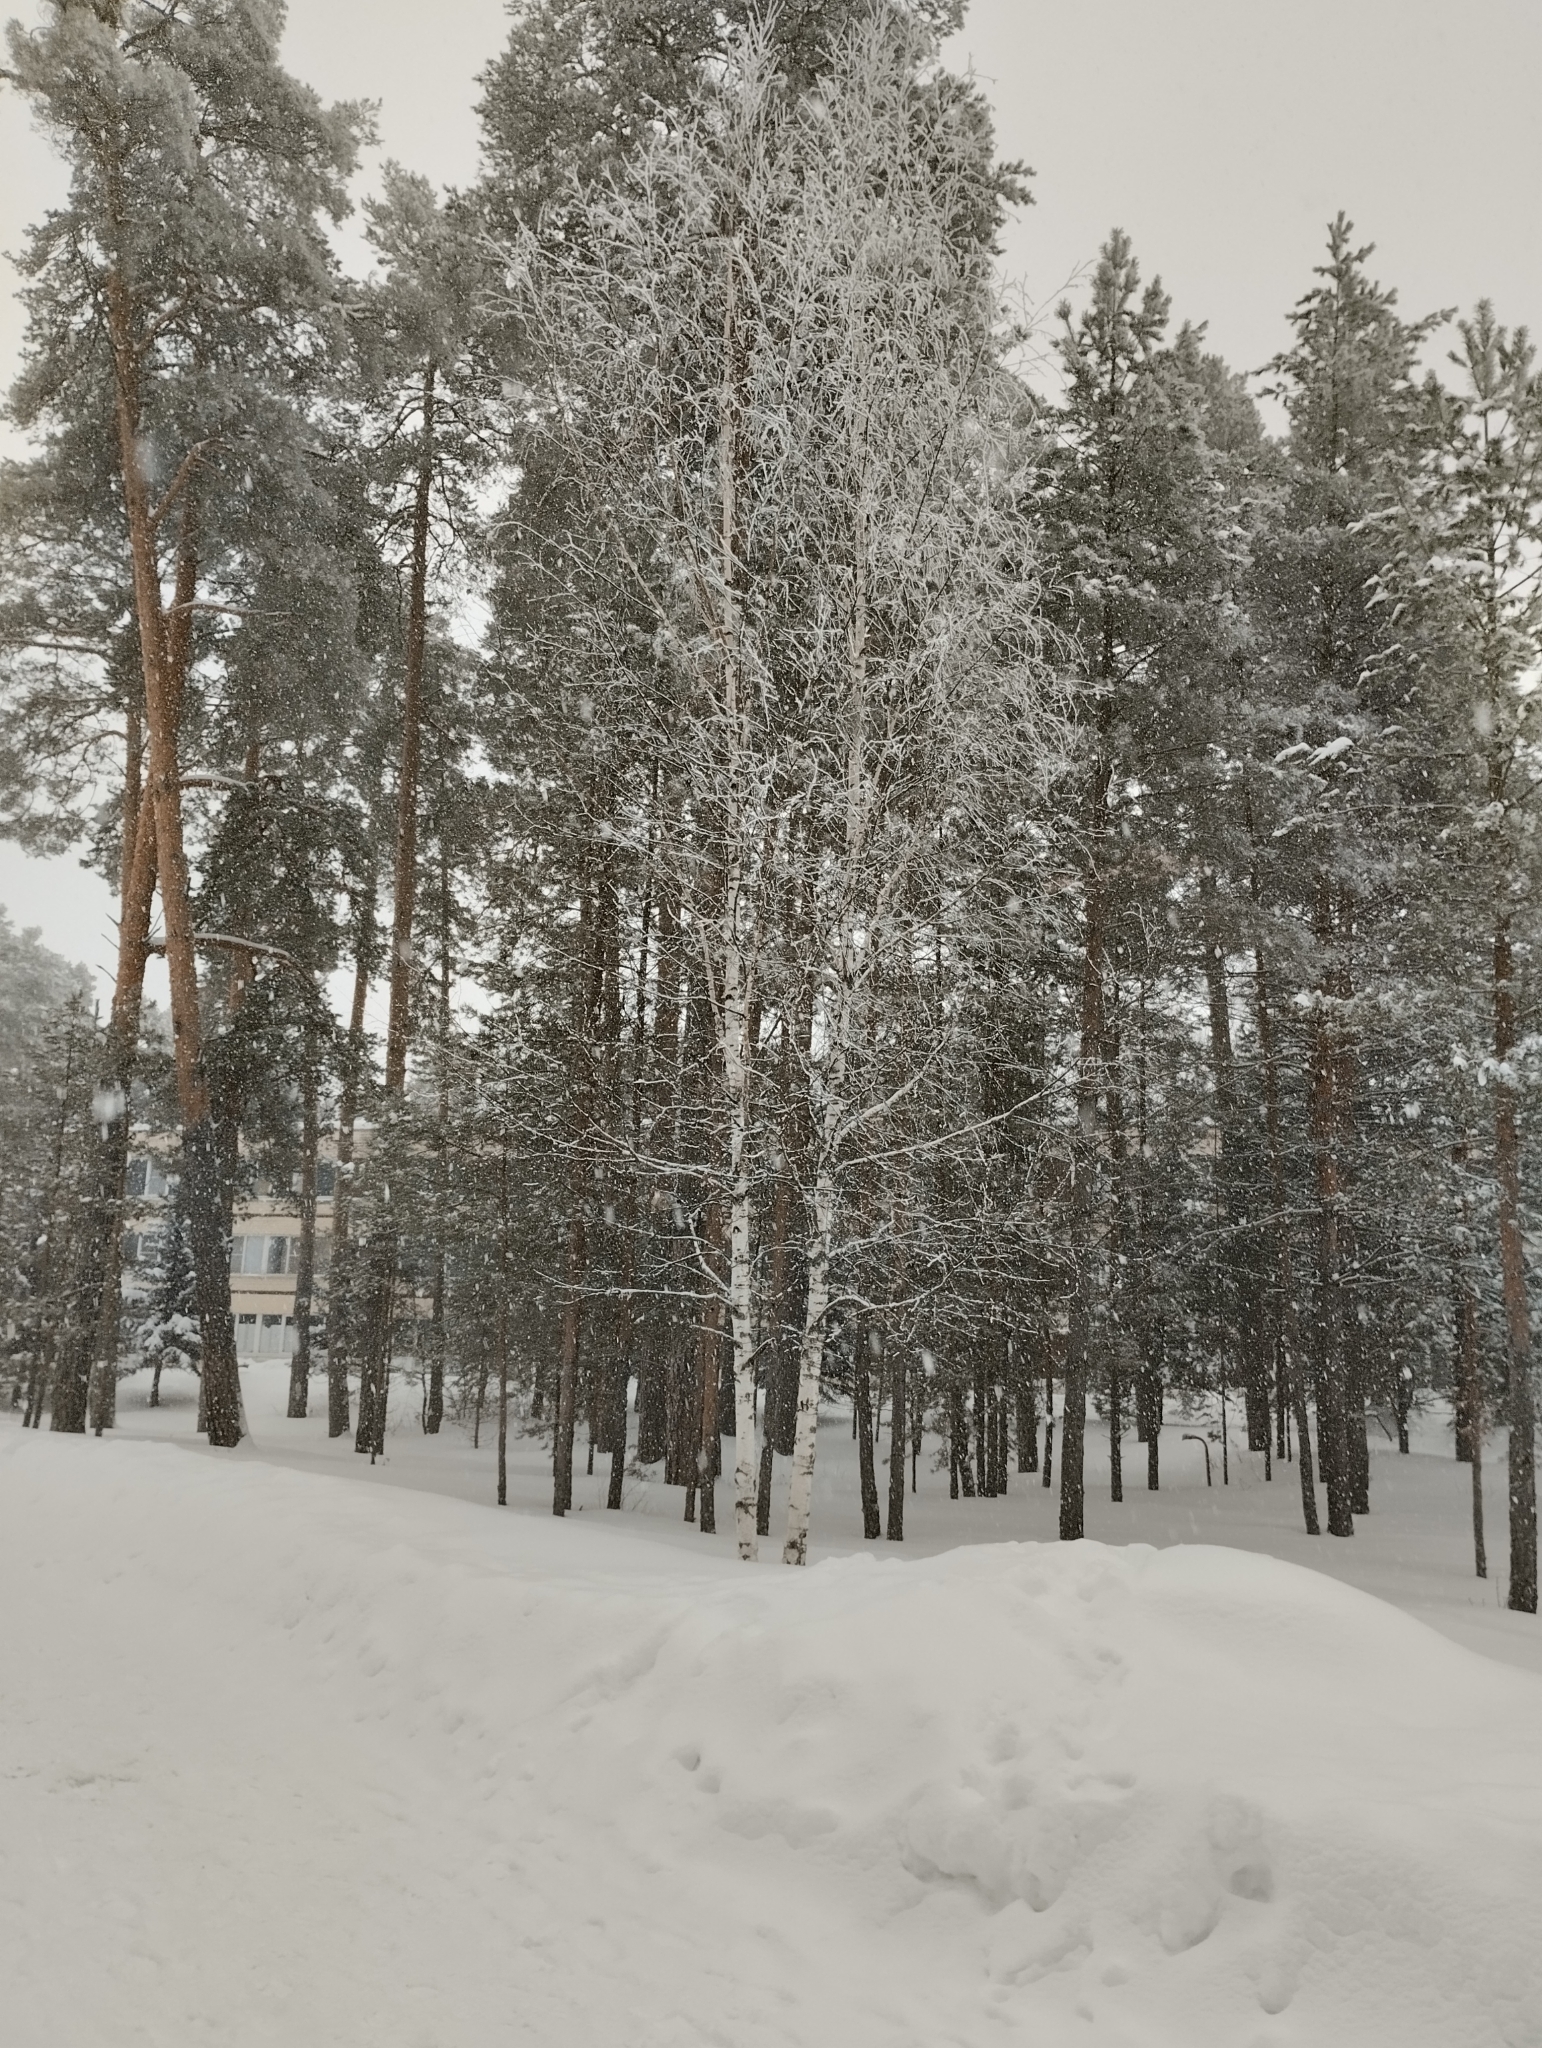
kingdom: Plantae
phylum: Tracheophyta
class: Magnoliopsida
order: Fagales
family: Betulaceae
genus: Betula
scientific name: Betula pendula
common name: Silver birch
